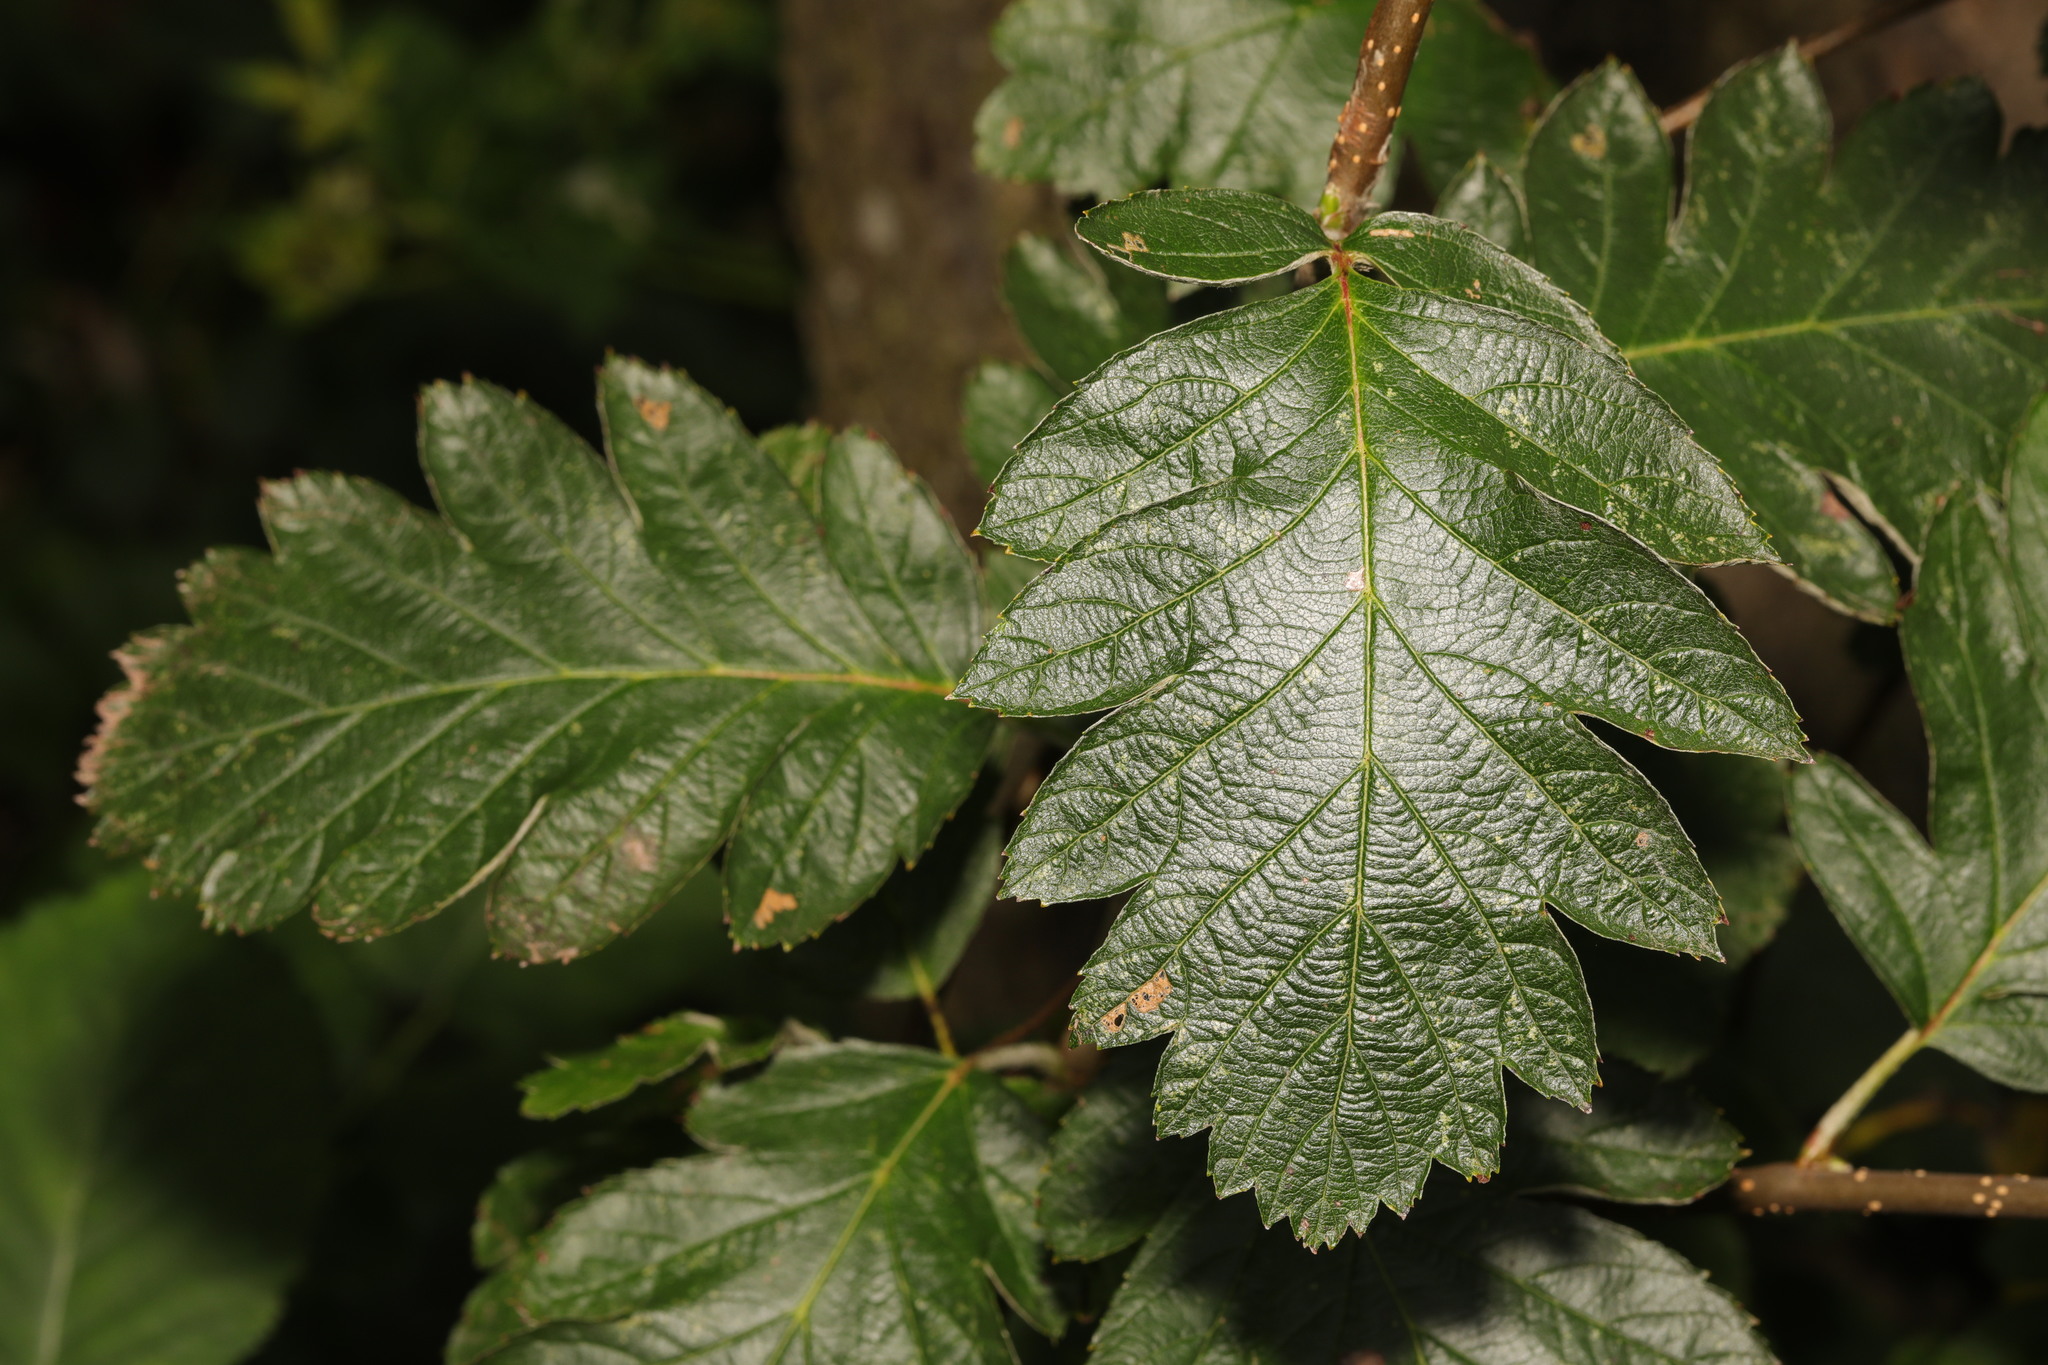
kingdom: Plantae
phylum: Tracheophyta
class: Magnoliopsida
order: Rosales
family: Rosaceae
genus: Scandosorbus
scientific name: Scandosorbus intermedia
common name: Swedish whitebeam
